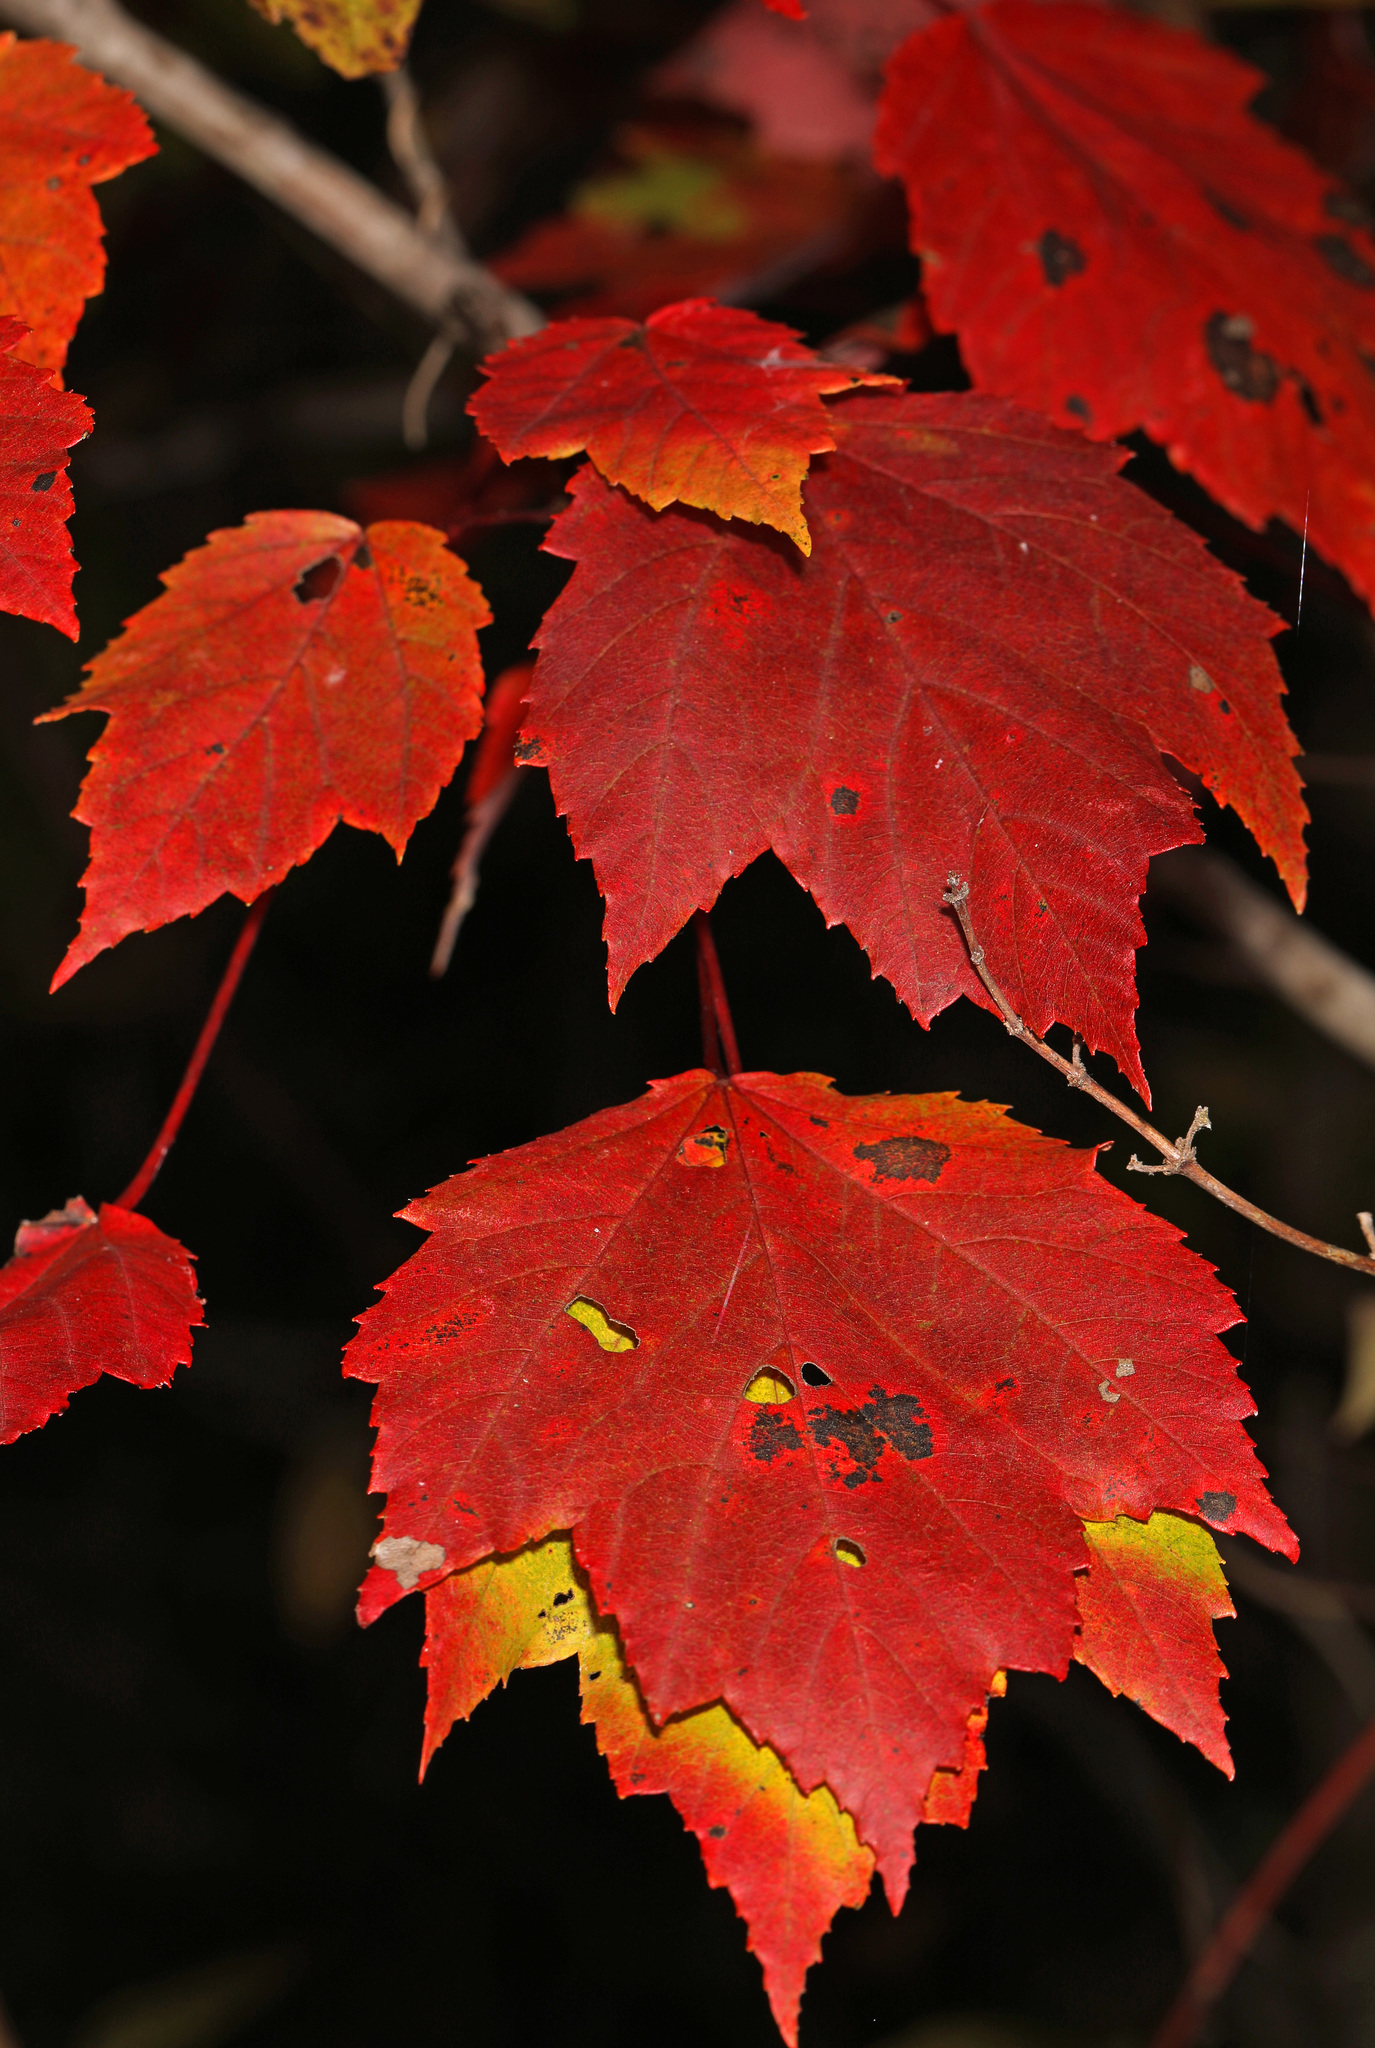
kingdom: Plantae
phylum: Tracheophyta
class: Magnoliopsida
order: Sapindales
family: Sapindaceae
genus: Acer
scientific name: Acer rubrum
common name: Red maple
